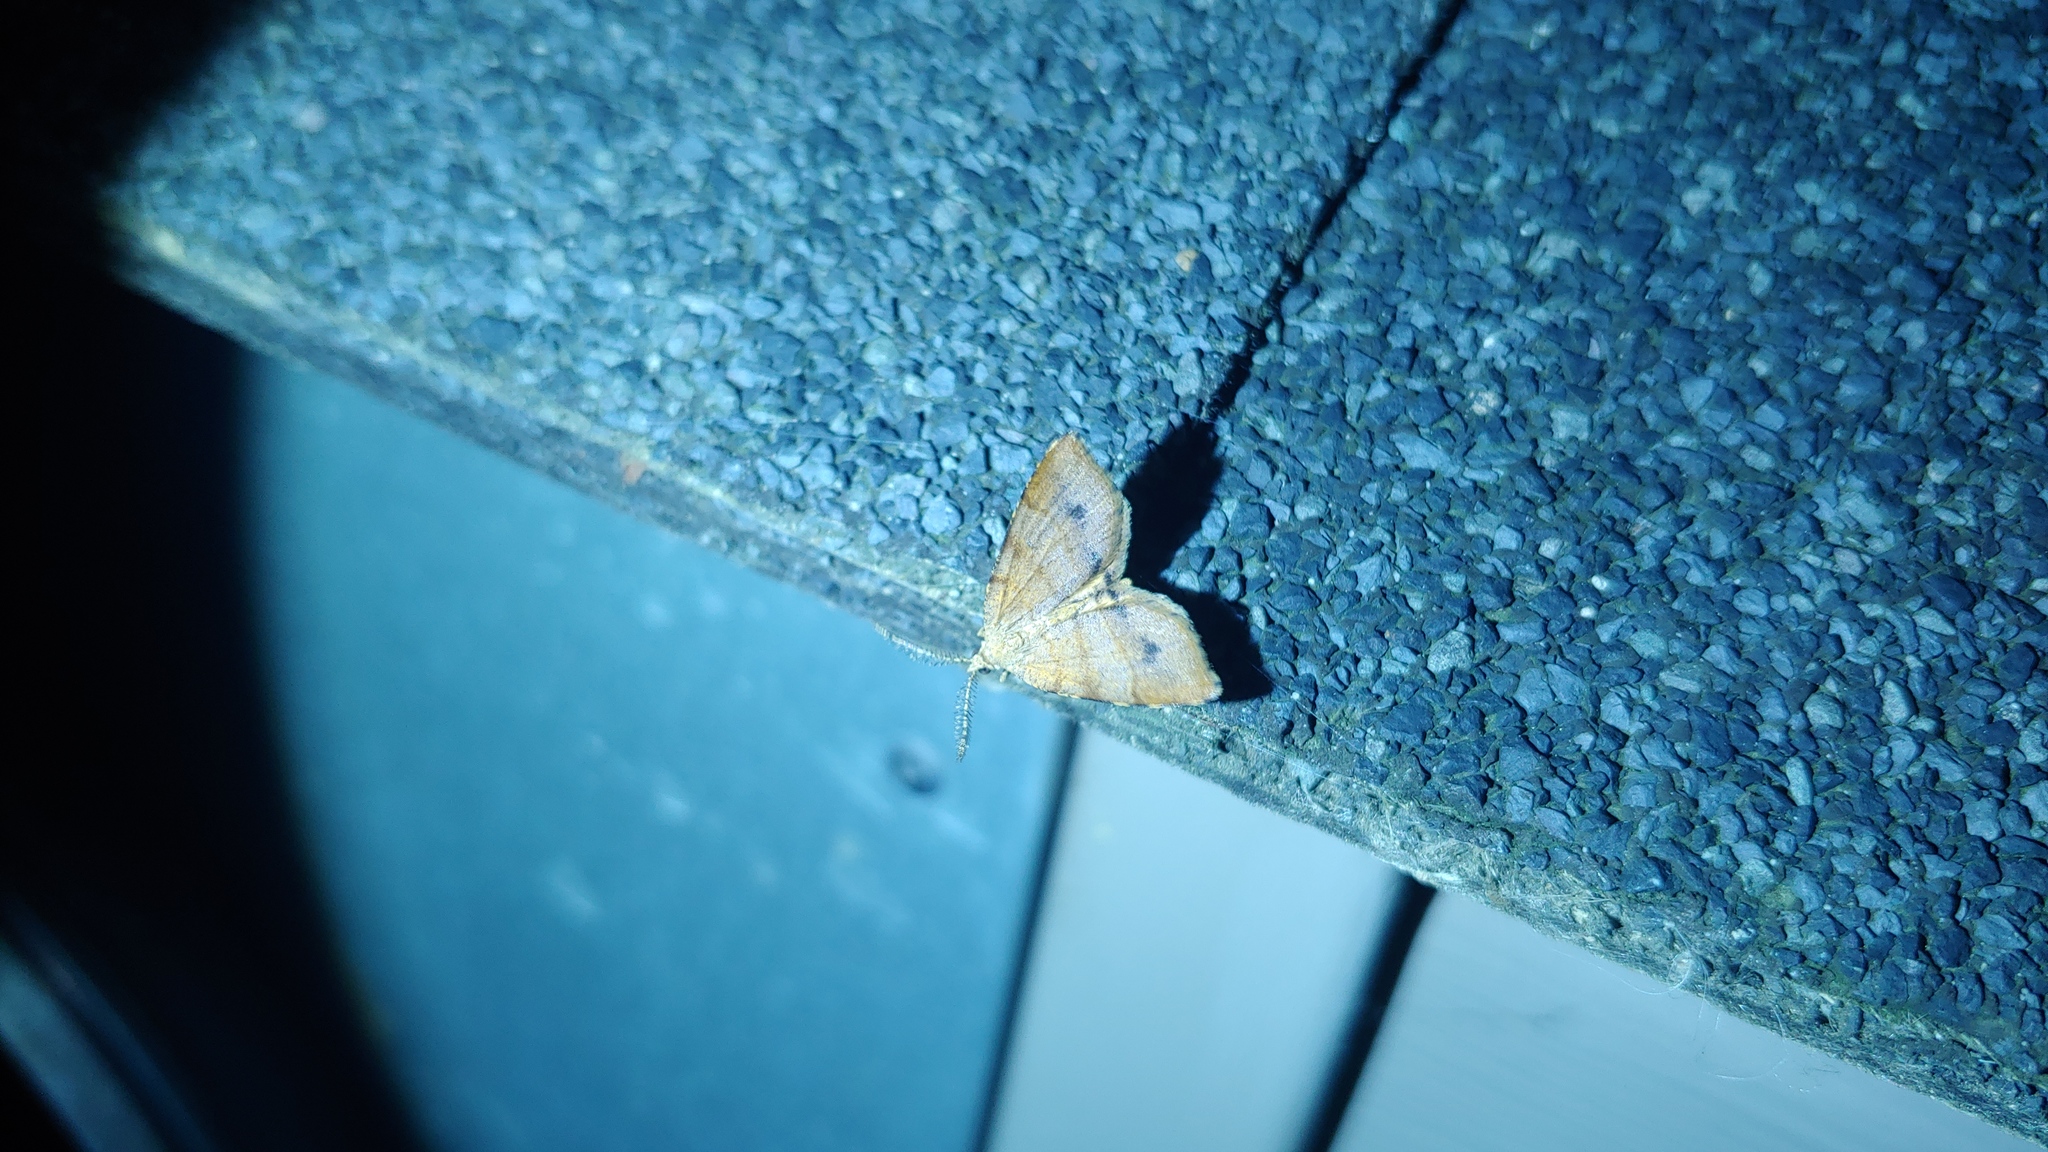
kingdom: Animalia
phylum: Arthropoda
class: Insecta
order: Lepidoptera
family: Geometridae
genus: Mellilla
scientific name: Mellilla xanthometata
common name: Orange wing moth
